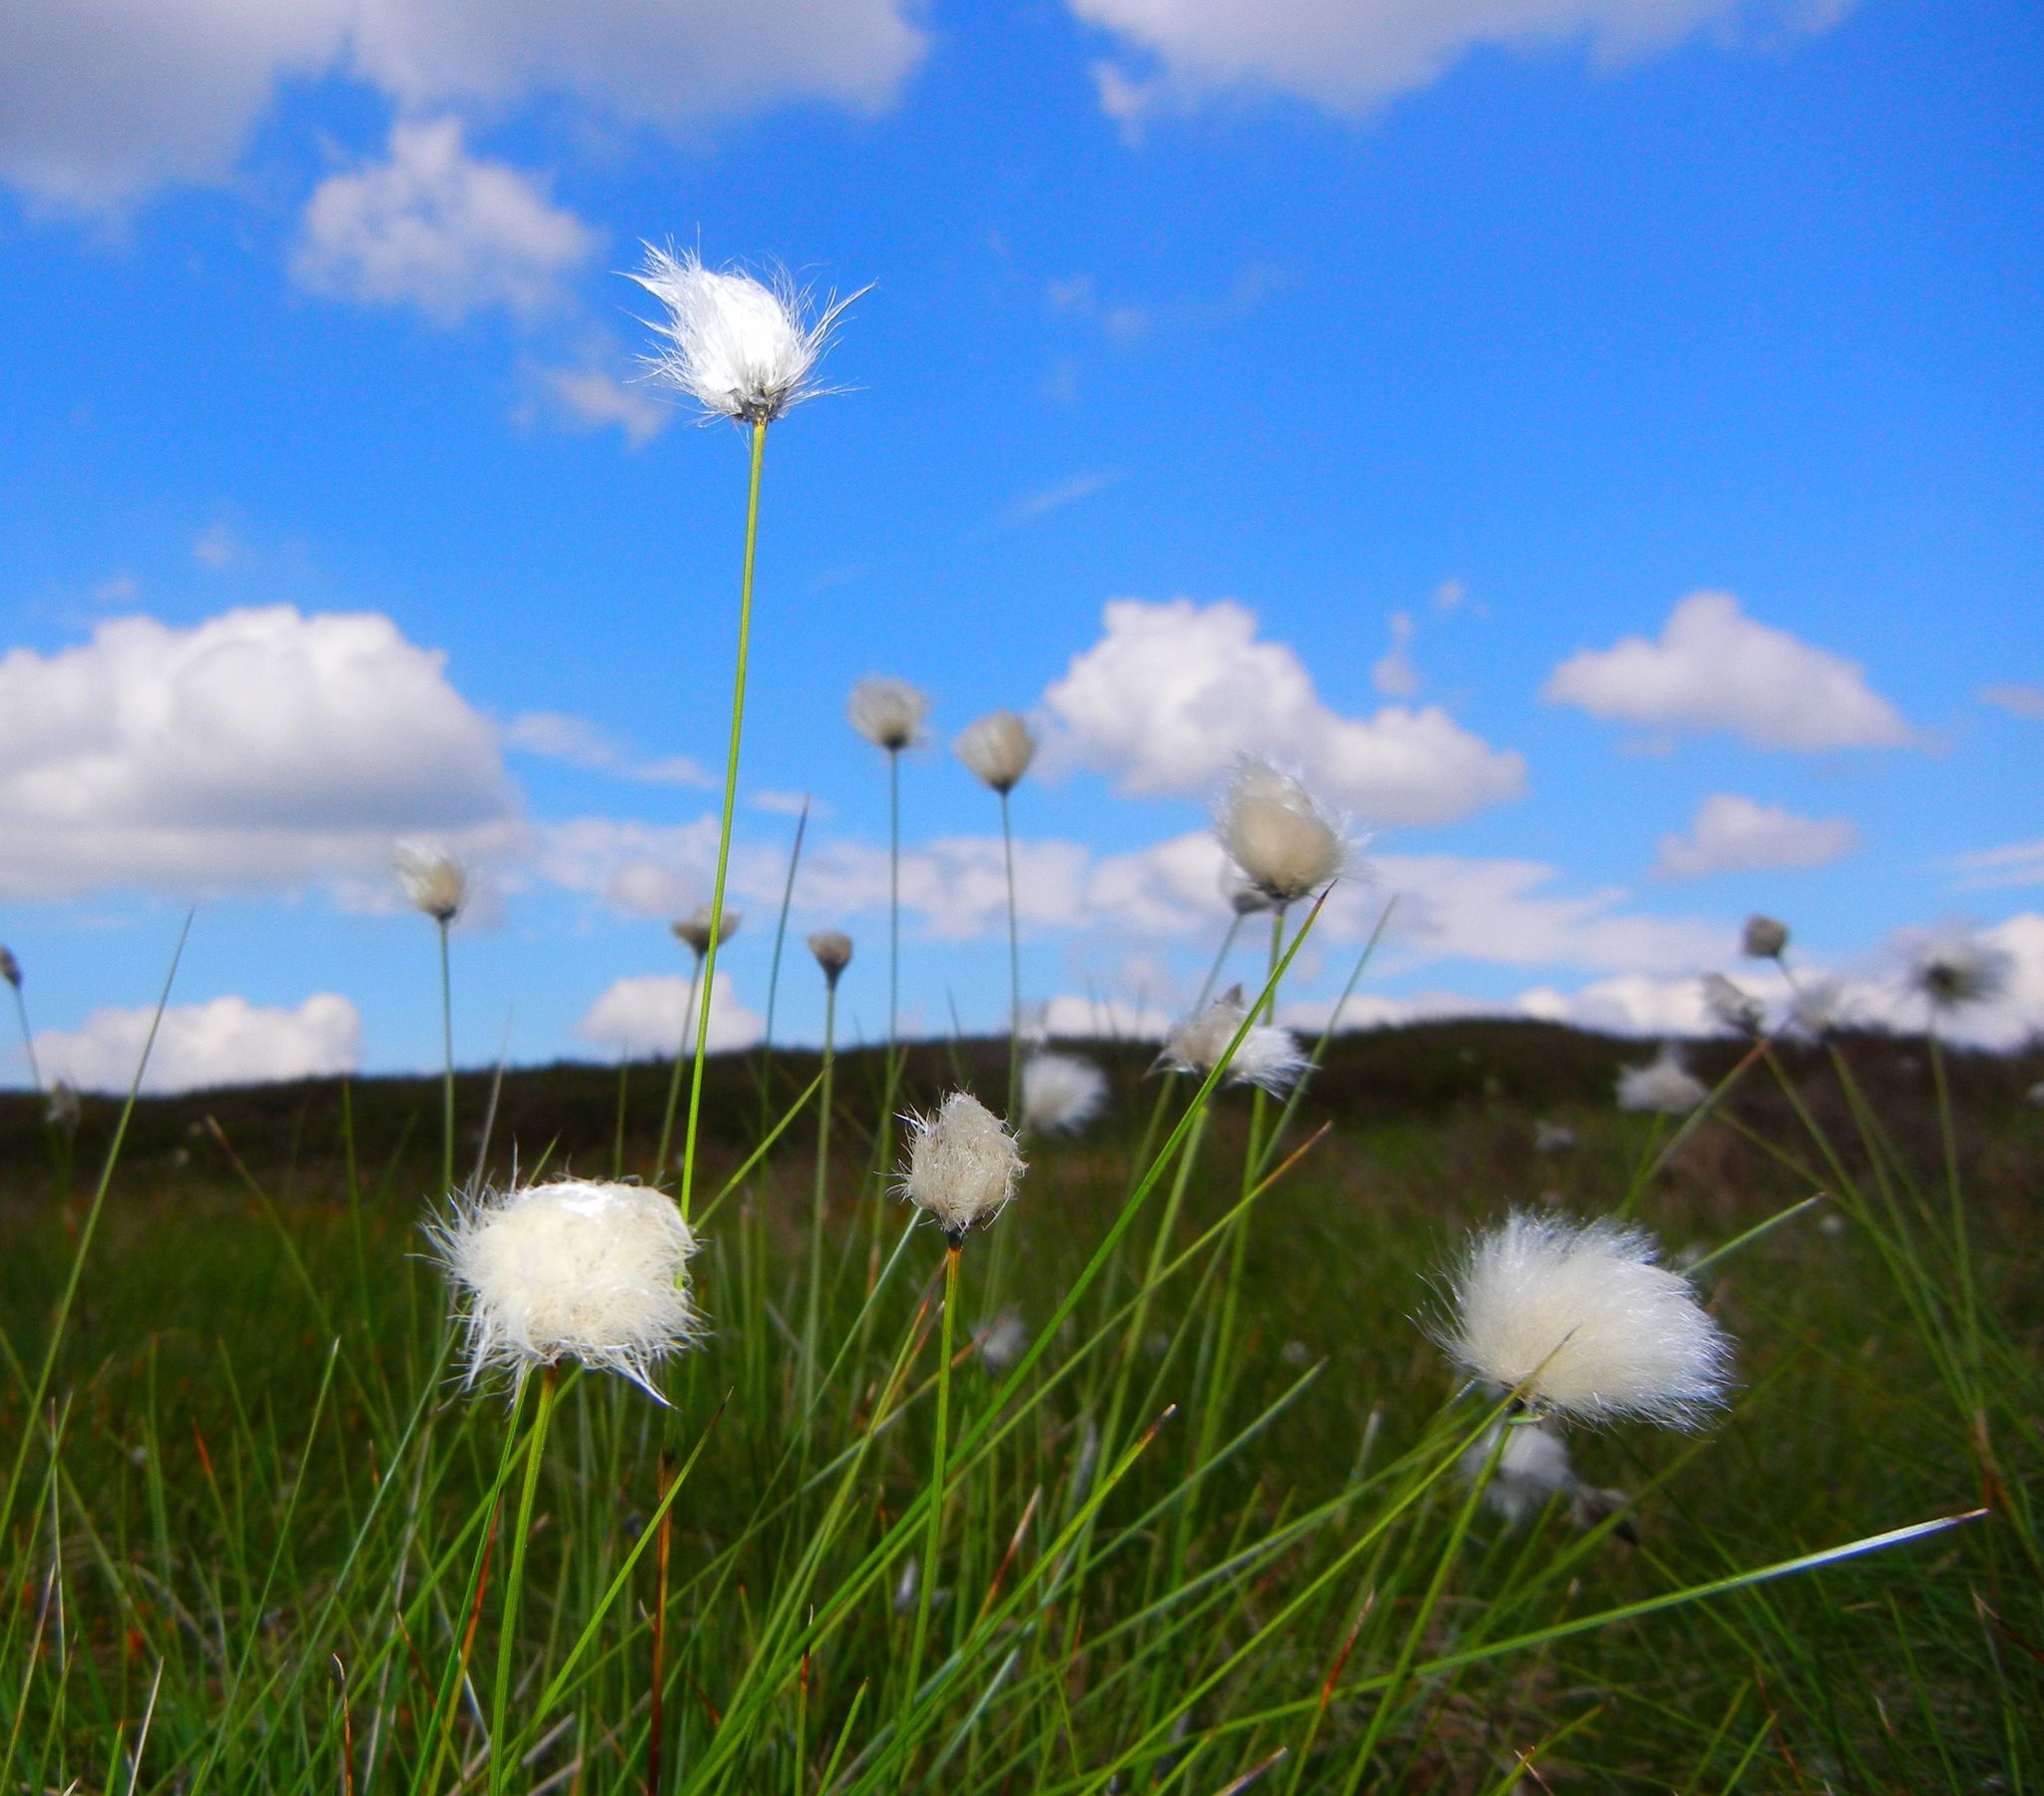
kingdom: Plantae
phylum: Tracheophyta
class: Liliopsida
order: Poales
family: Cyperaceae
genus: Eriophorum
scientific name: Eriophorum vaginatum
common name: Hare's-tail cottongrass
